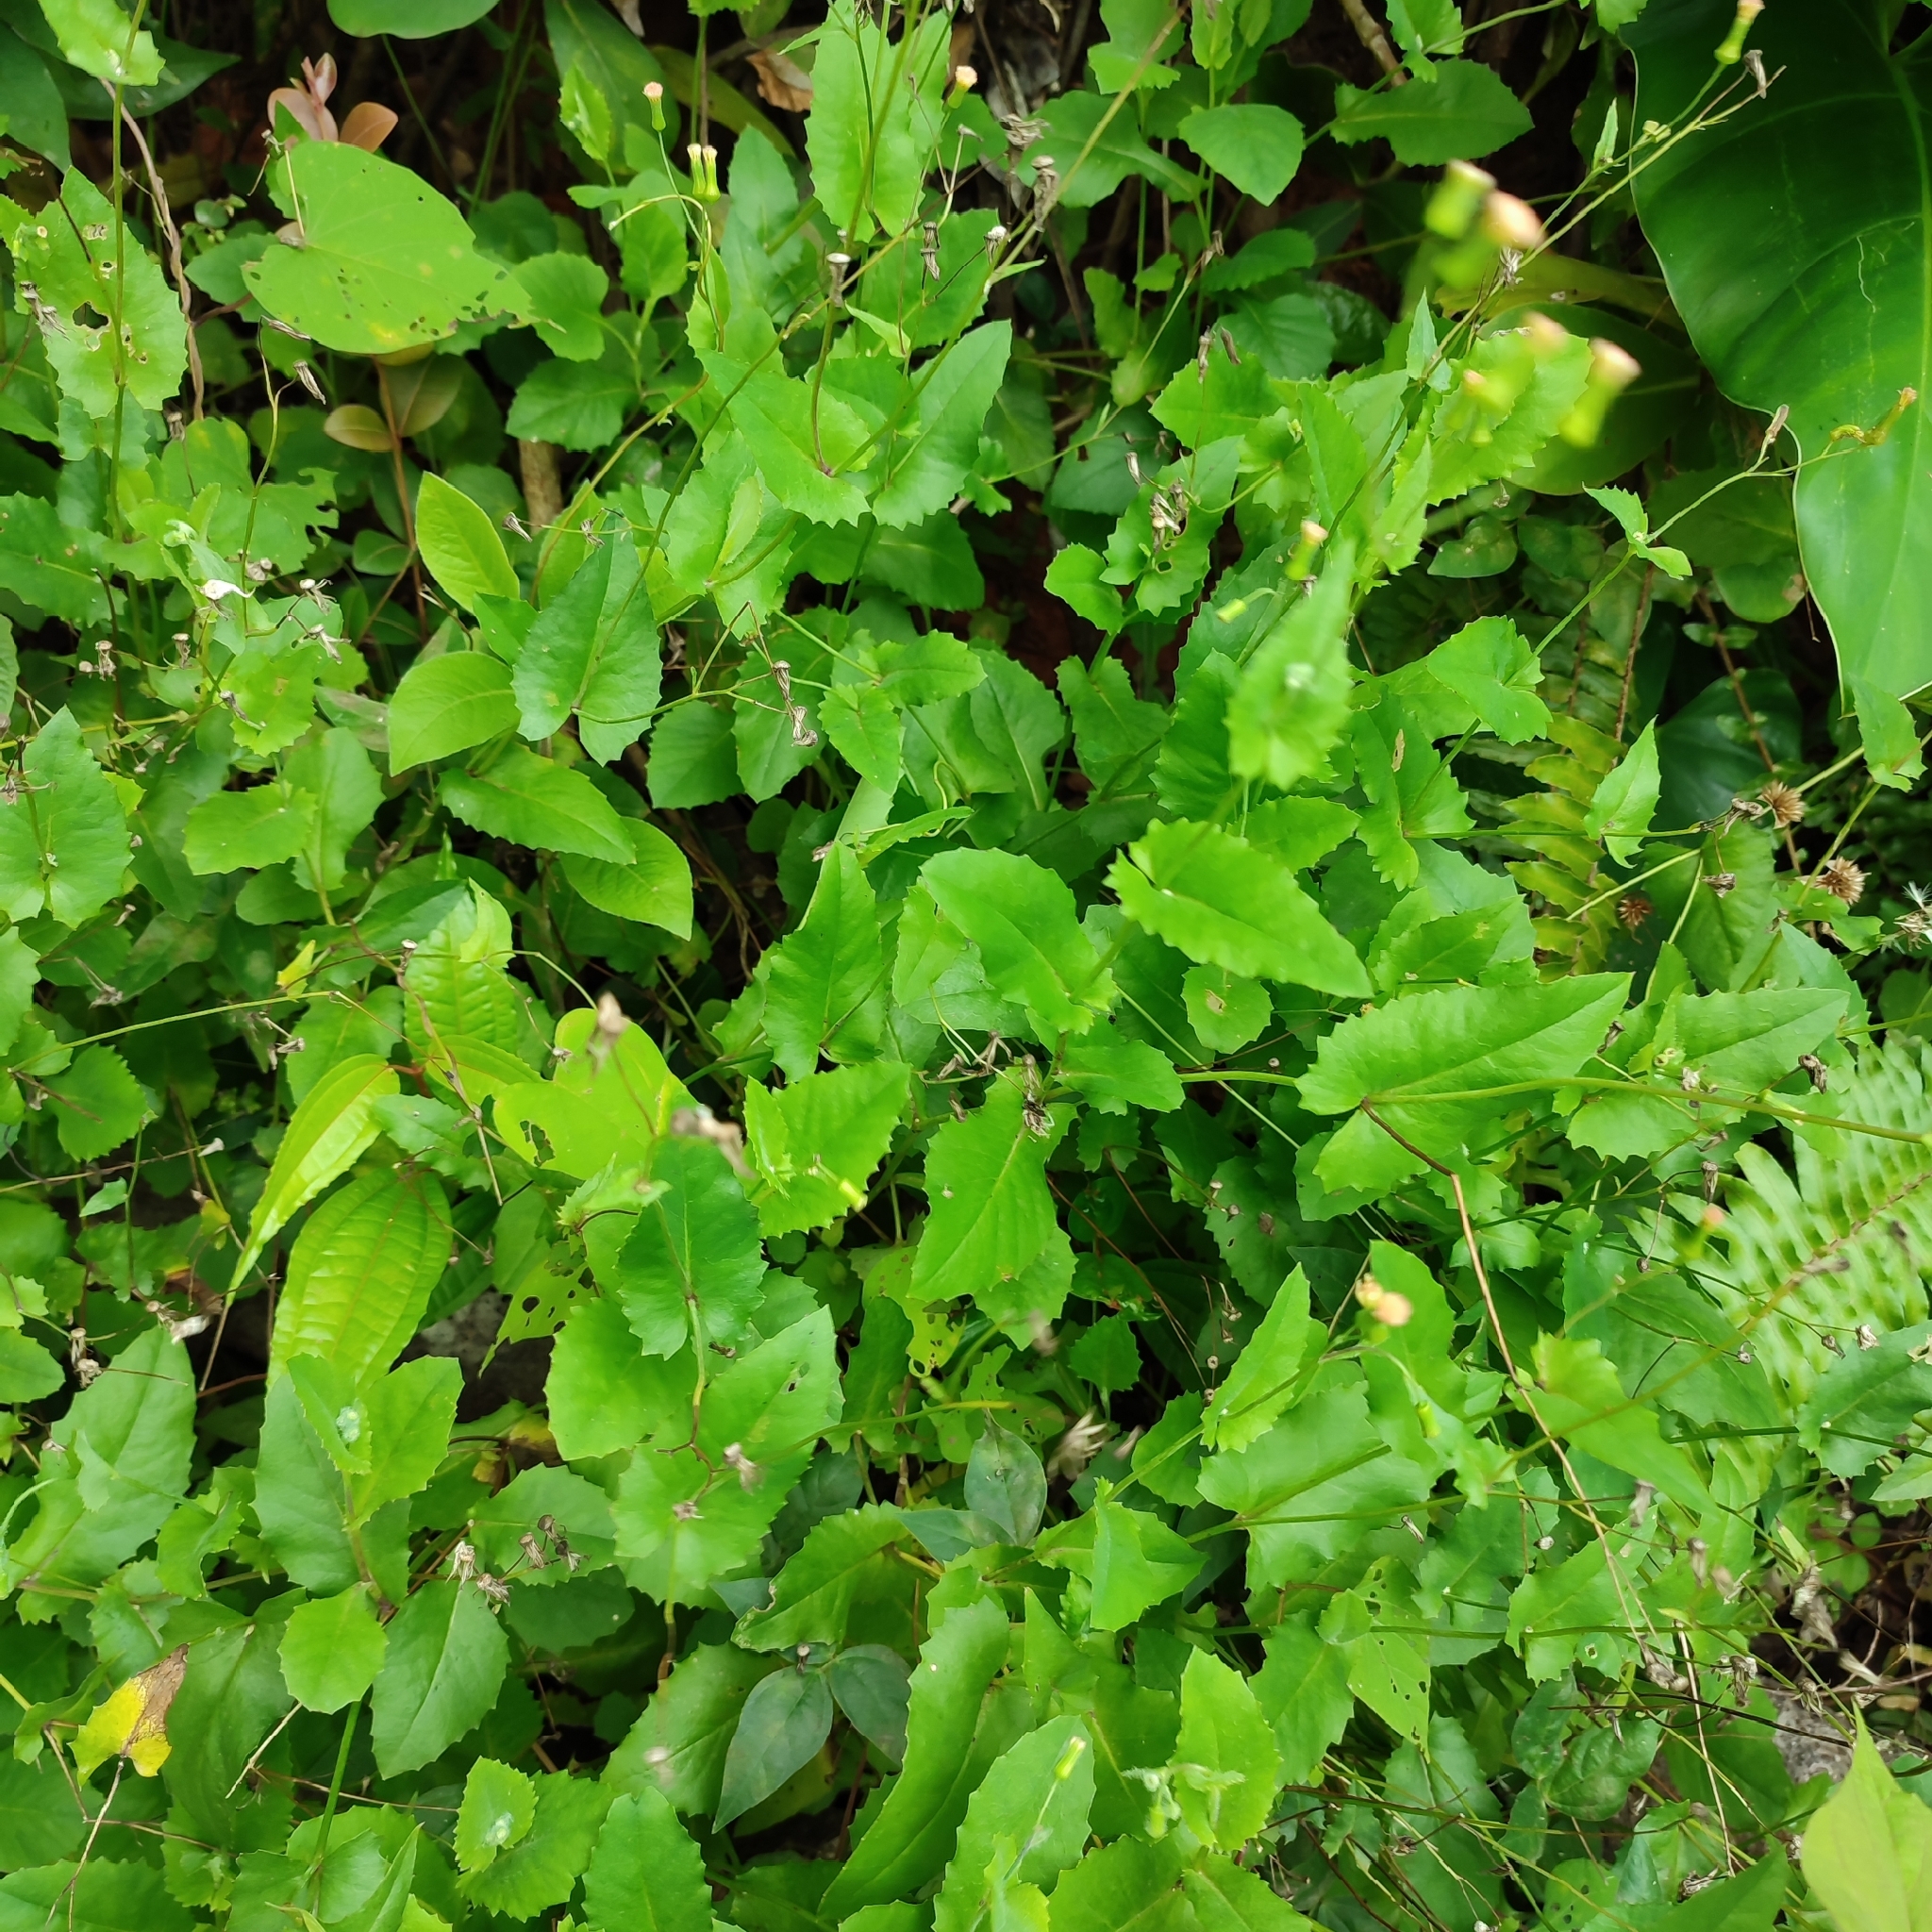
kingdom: Plantae
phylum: Tracheophyta
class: Magnoliopsida
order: Asterales
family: Asteraceae
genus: Emilia
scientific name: Emilia praetermissa
